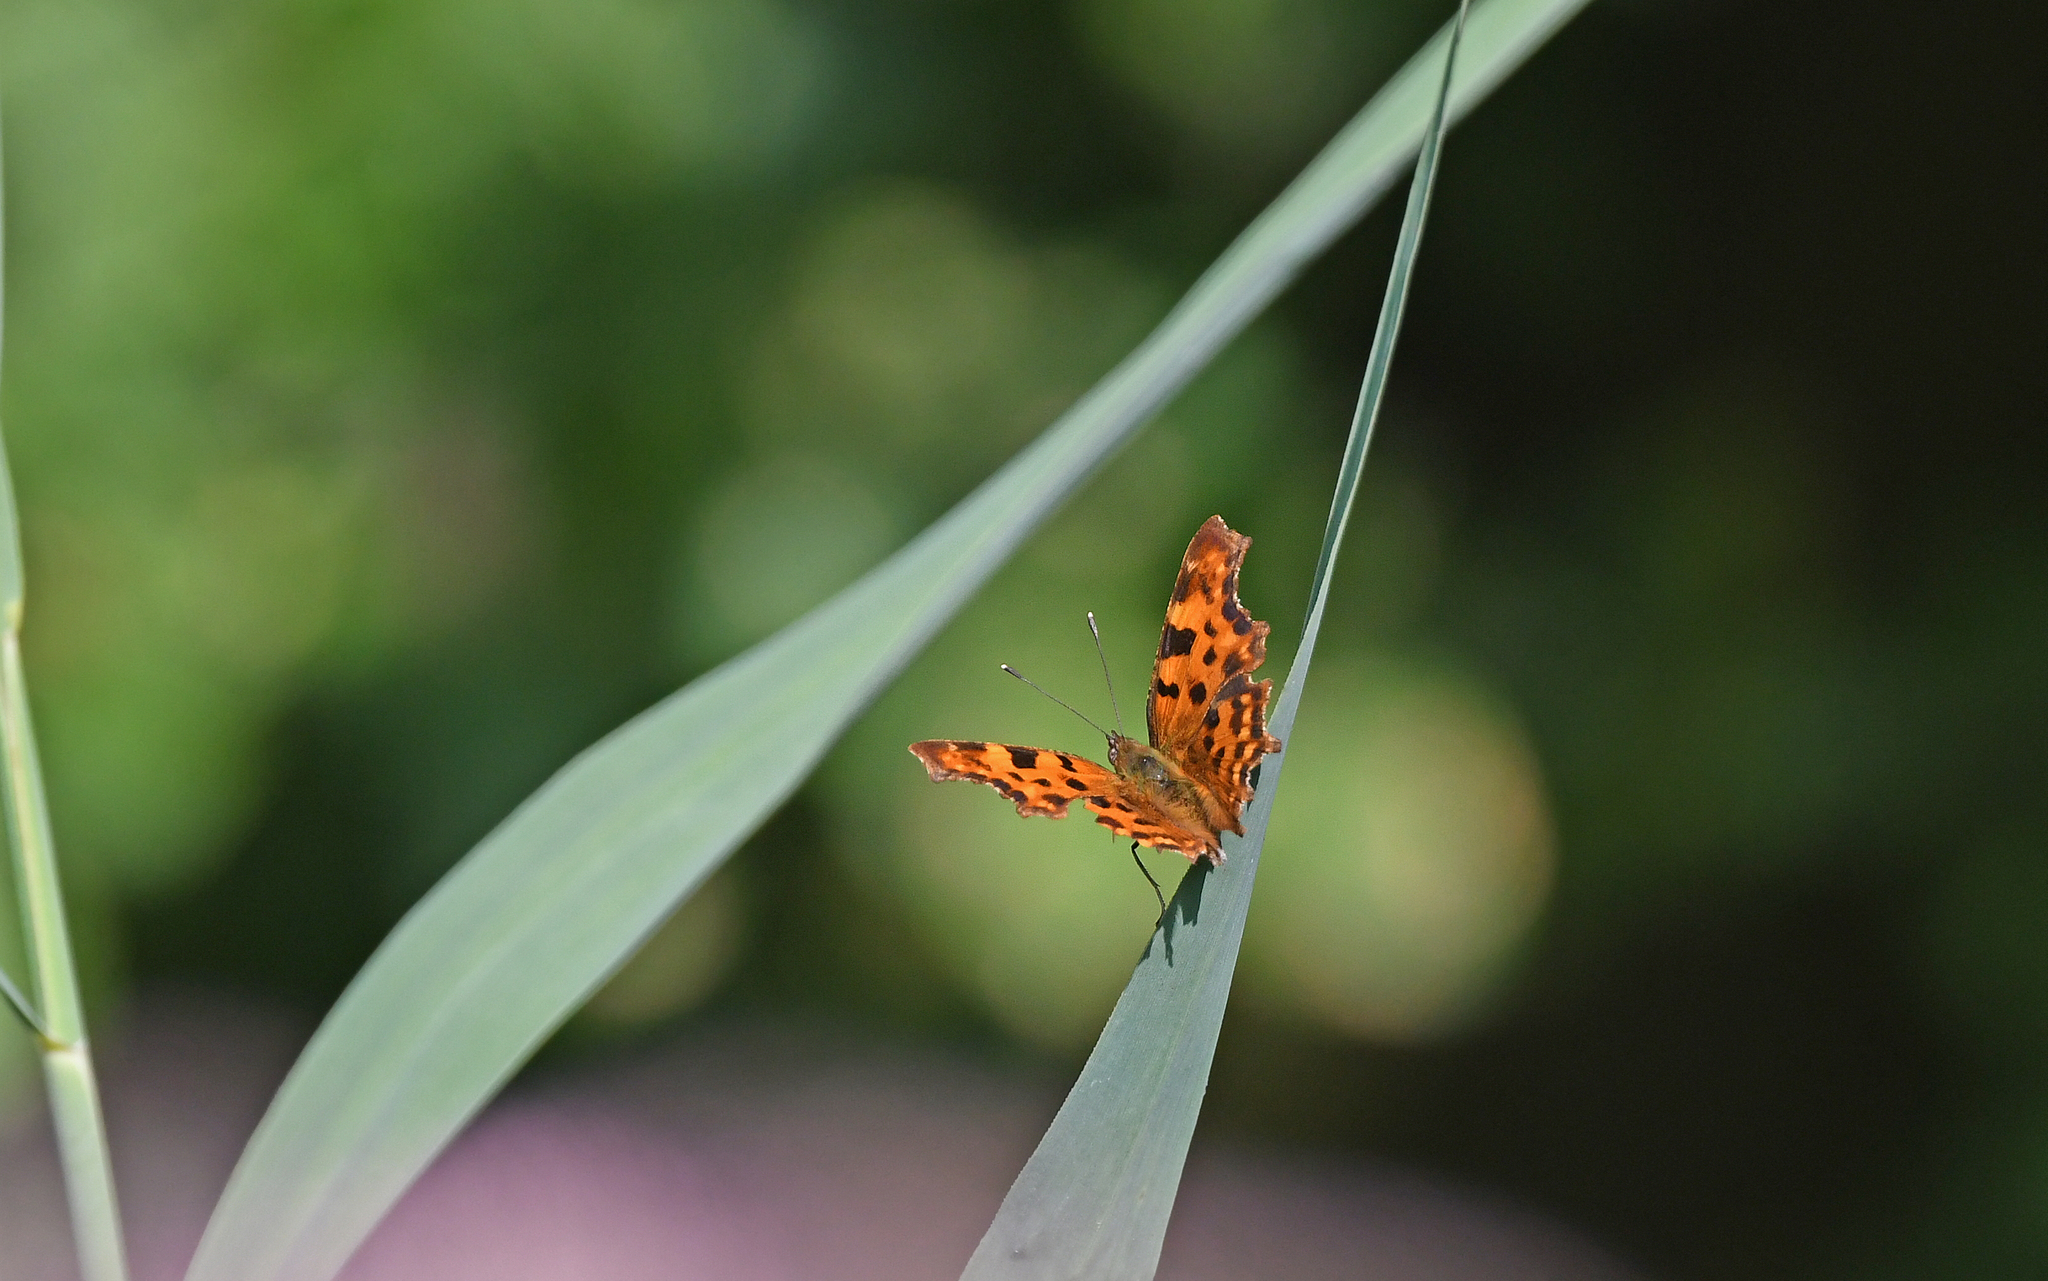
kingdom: Animalia
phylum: Arthropoda
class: Insecta
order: Lepidoptera
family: Nymphalidae
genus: Polygonia
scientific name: Polygonia c-album
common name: Comma
